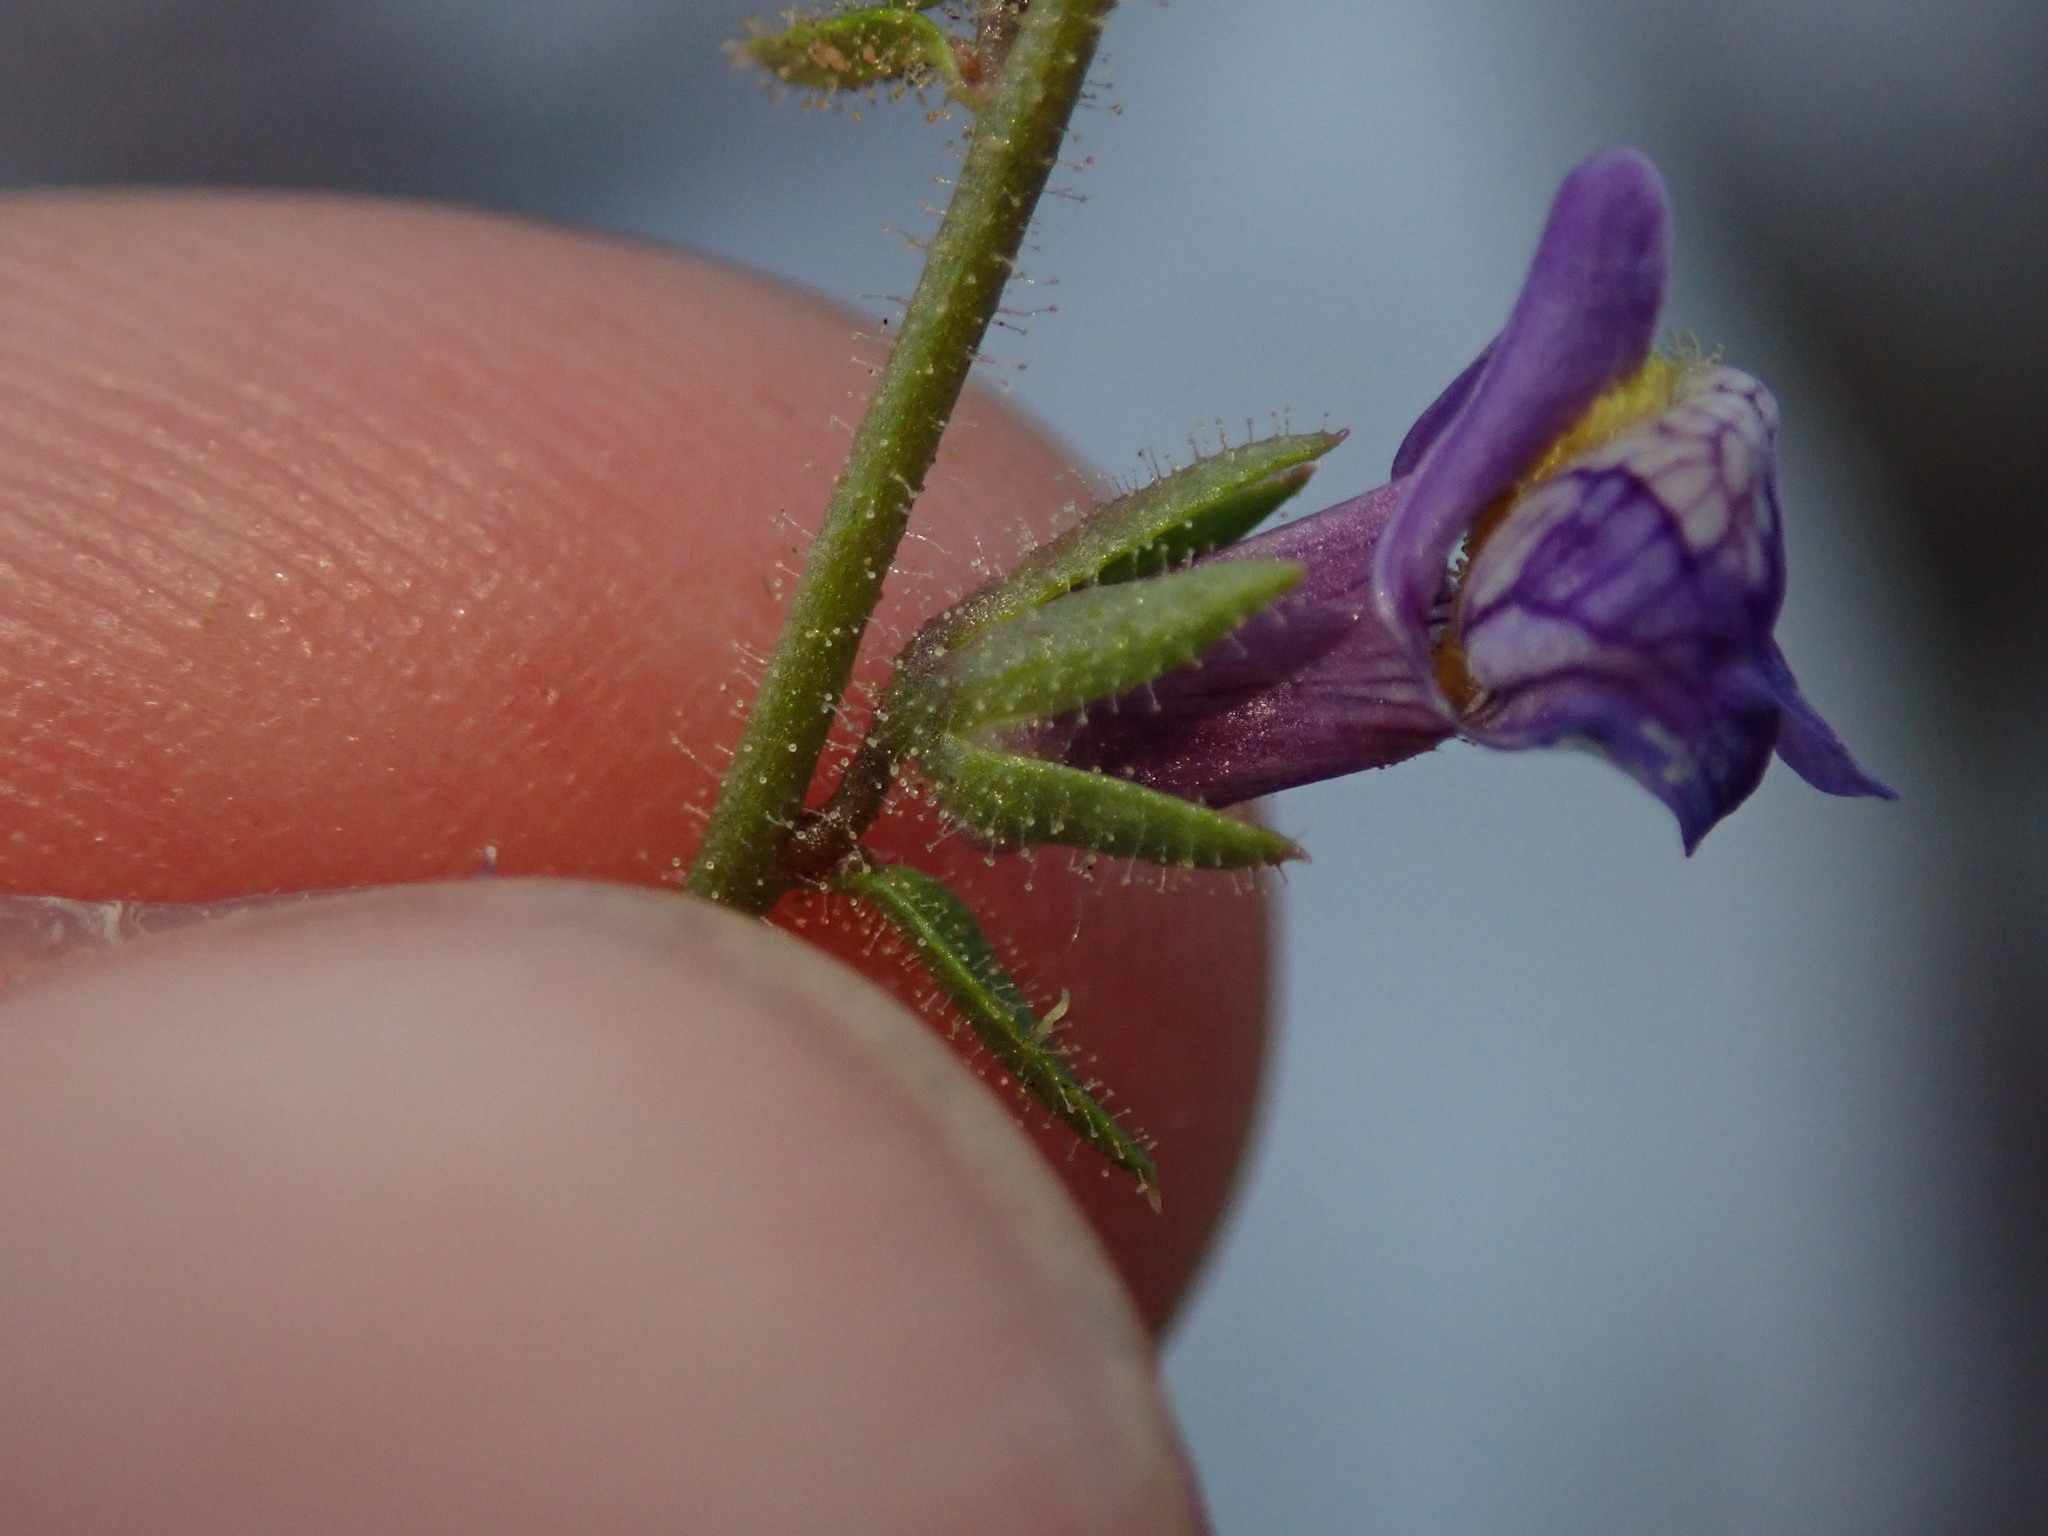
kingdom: Plantae
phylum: Tracheophyta
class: Magnoliopsida
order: Lamiales
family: Plantaginaceae
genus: Sairocarpus
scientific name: Sairocarpus nuttallianus
